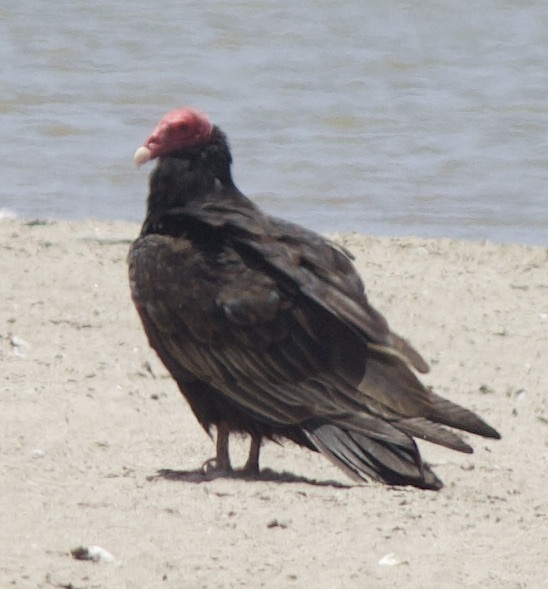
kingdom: Animalia
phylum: Chordata
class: Aves
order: Accipitriformes
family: Cathartidae
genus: Cathartes
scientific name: Cathartes aura
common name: Turkey vulture
